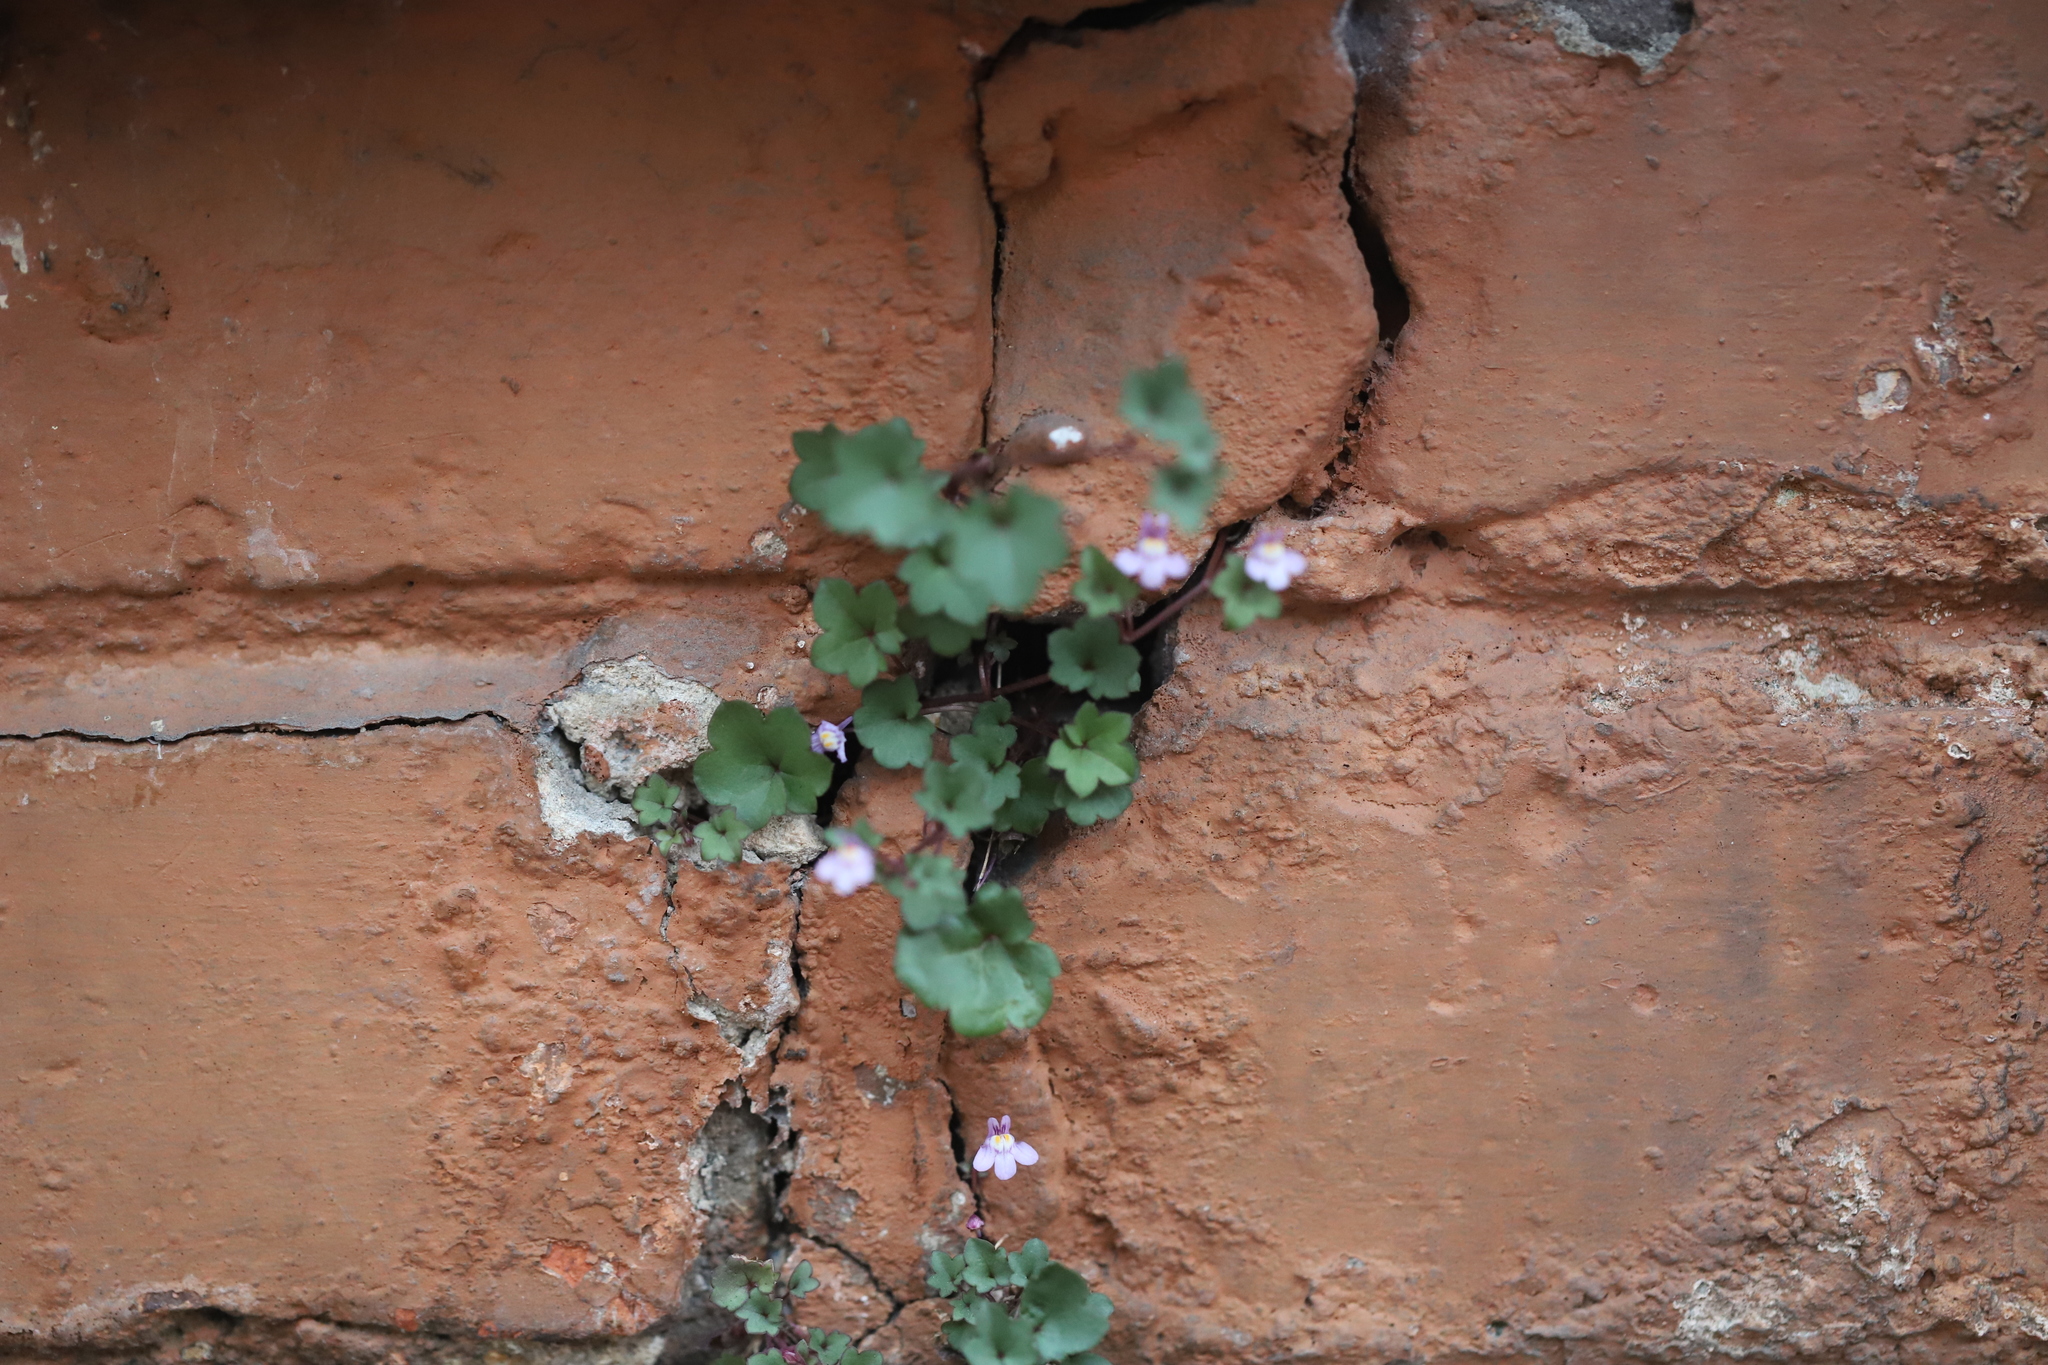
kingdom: Plantae
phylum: Tracheophyta
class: Magnoliopsida
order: Lamiales
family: Plantaginaceae
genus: Cymbalaria
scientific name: Cymbalaria muralis
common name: Ivy-leaved toadflax
